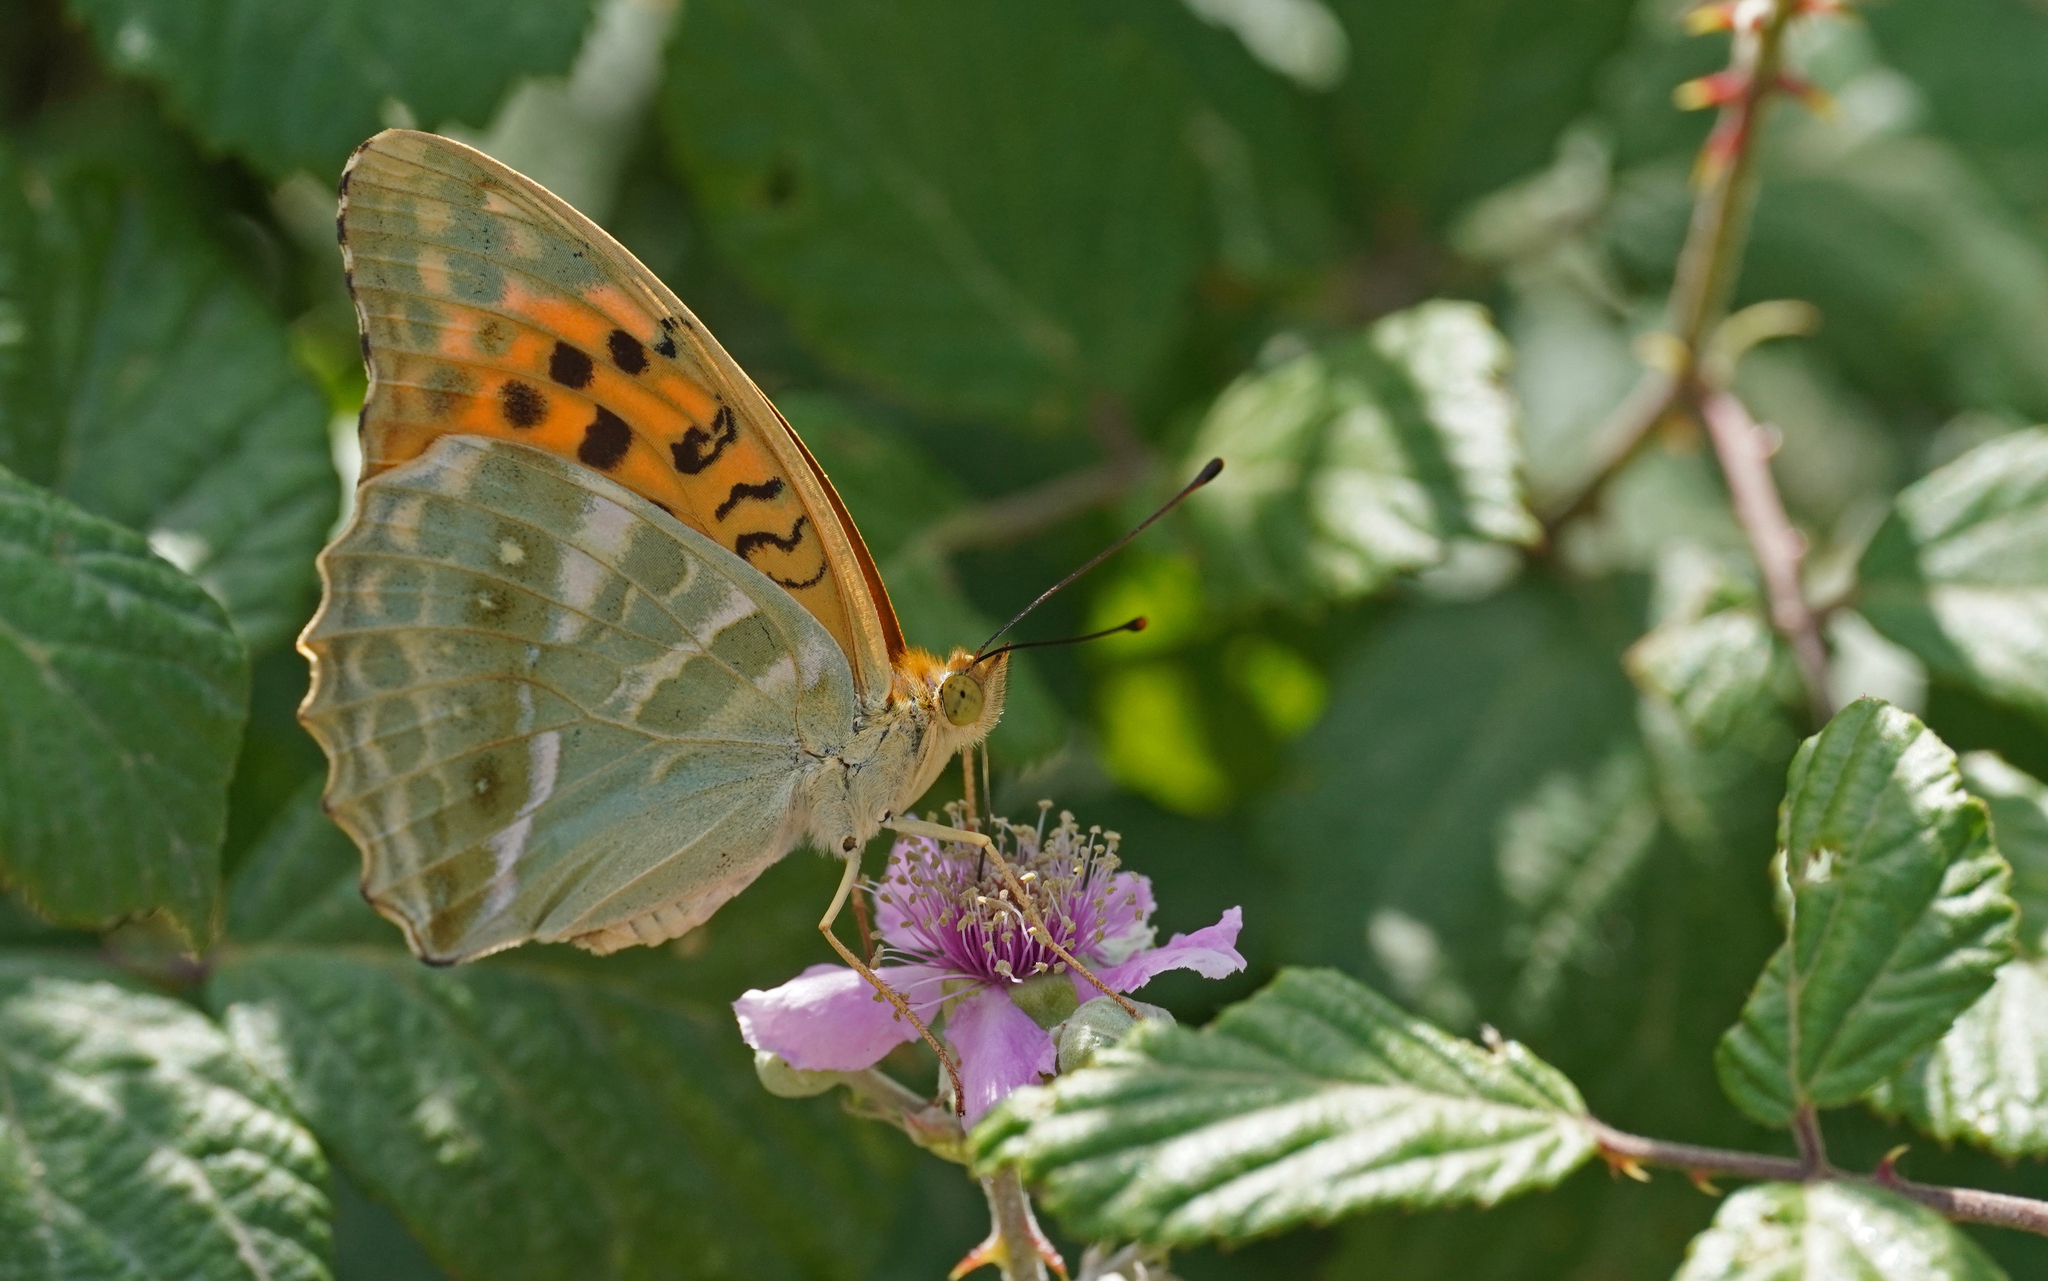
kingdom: Animalia
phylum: Arthropoda
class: Insecta
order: Lepidoptera
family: Nymphalidae
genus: Argynnis
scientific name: Argynnis paphia
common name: Silver-washed fritillary
